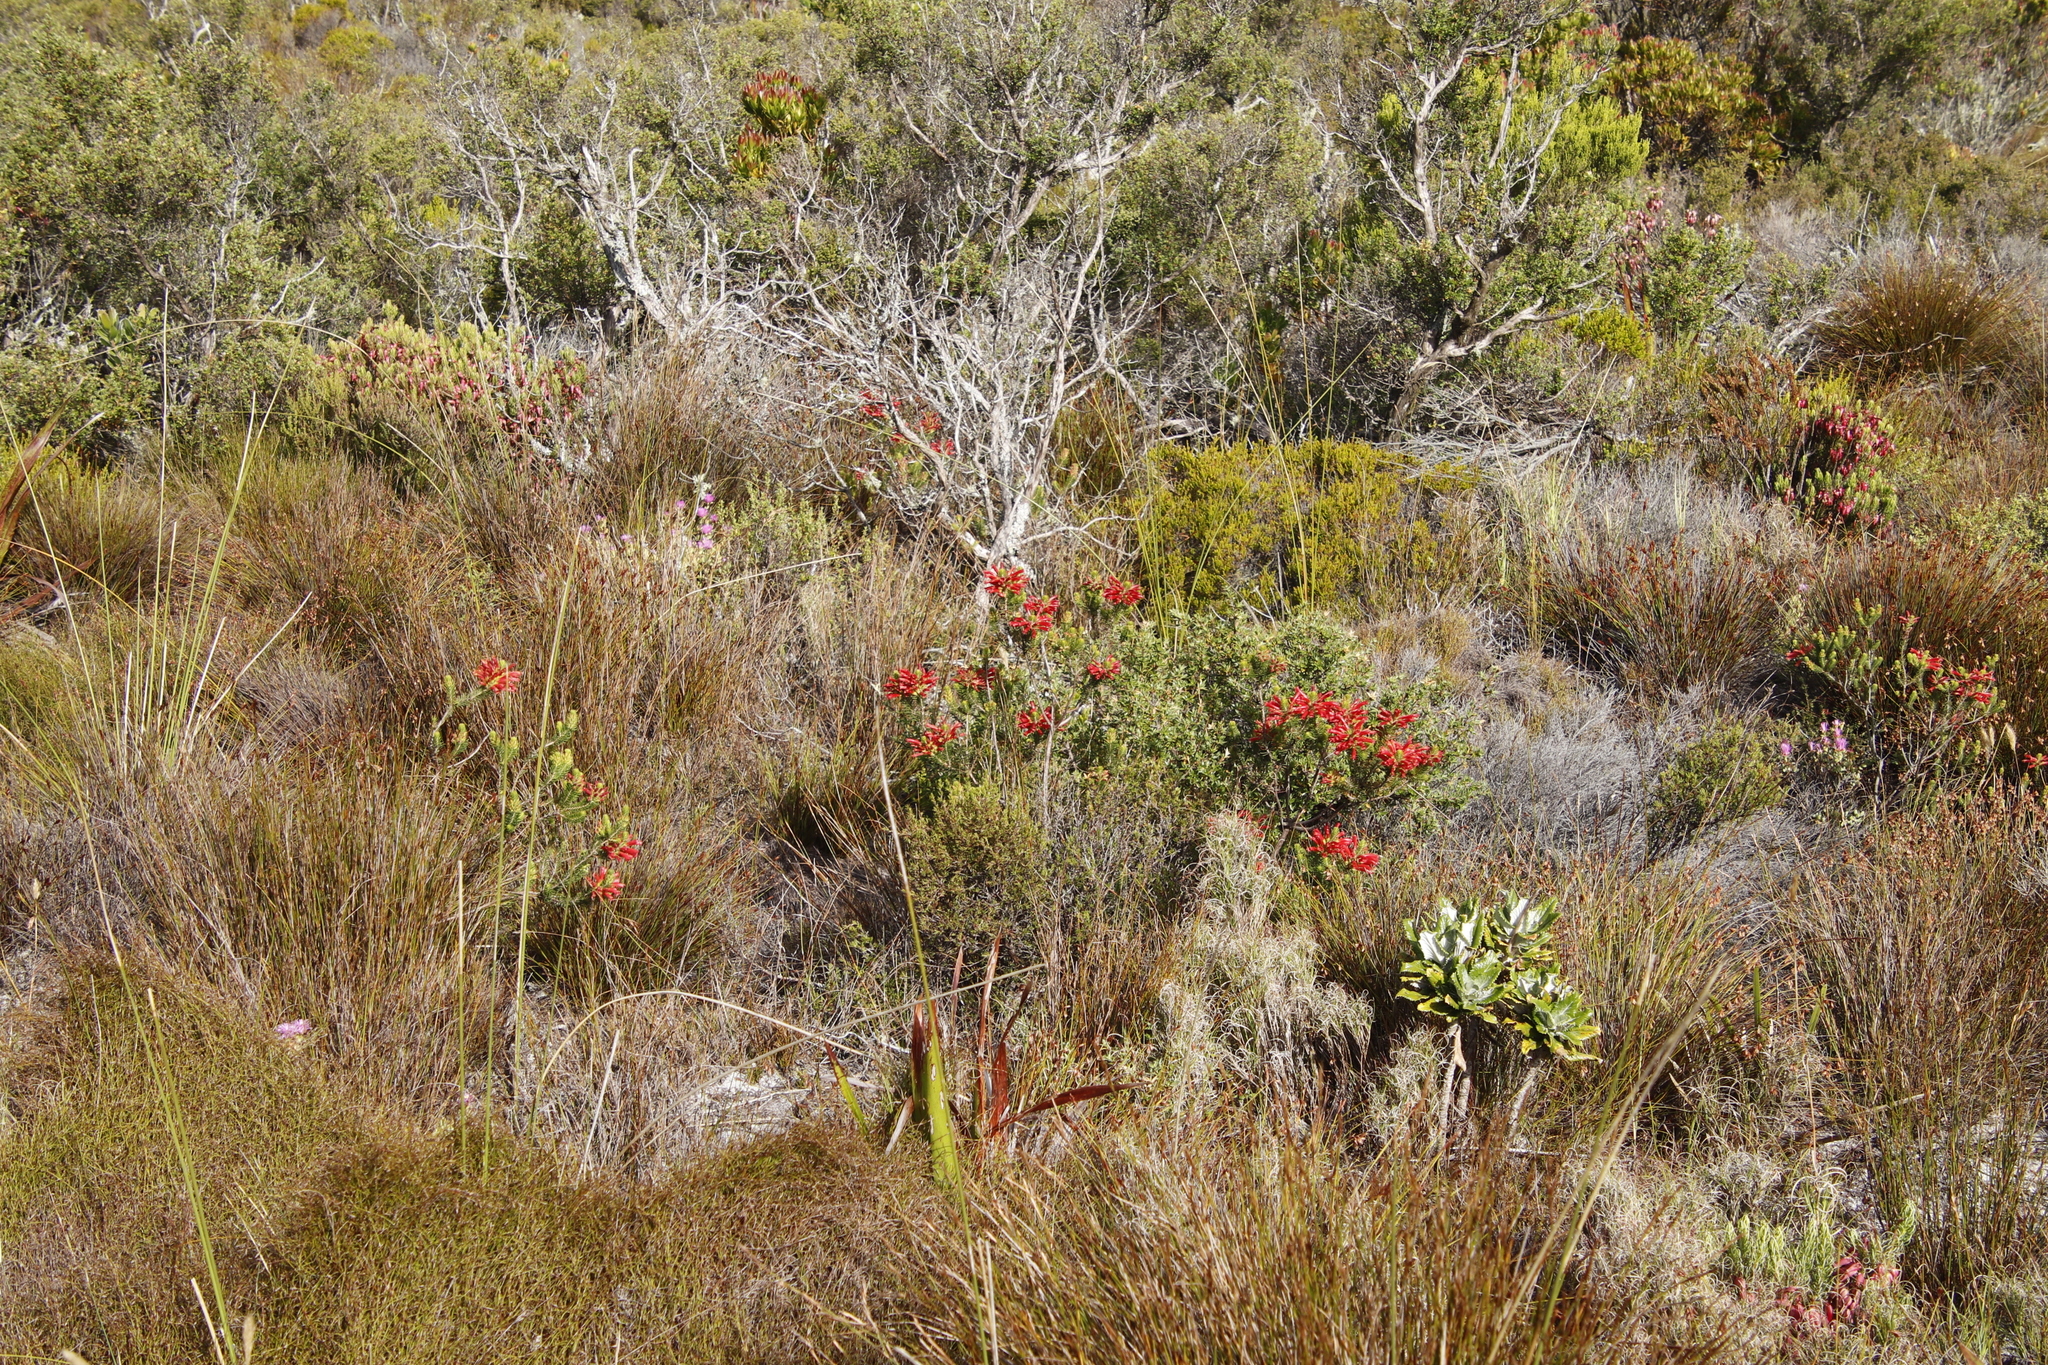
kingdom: Plantae
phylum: Tracheophyta
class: Magnoliopsida
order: Ericales
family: Ericaceae
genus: Erica
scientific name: Erica abietina
